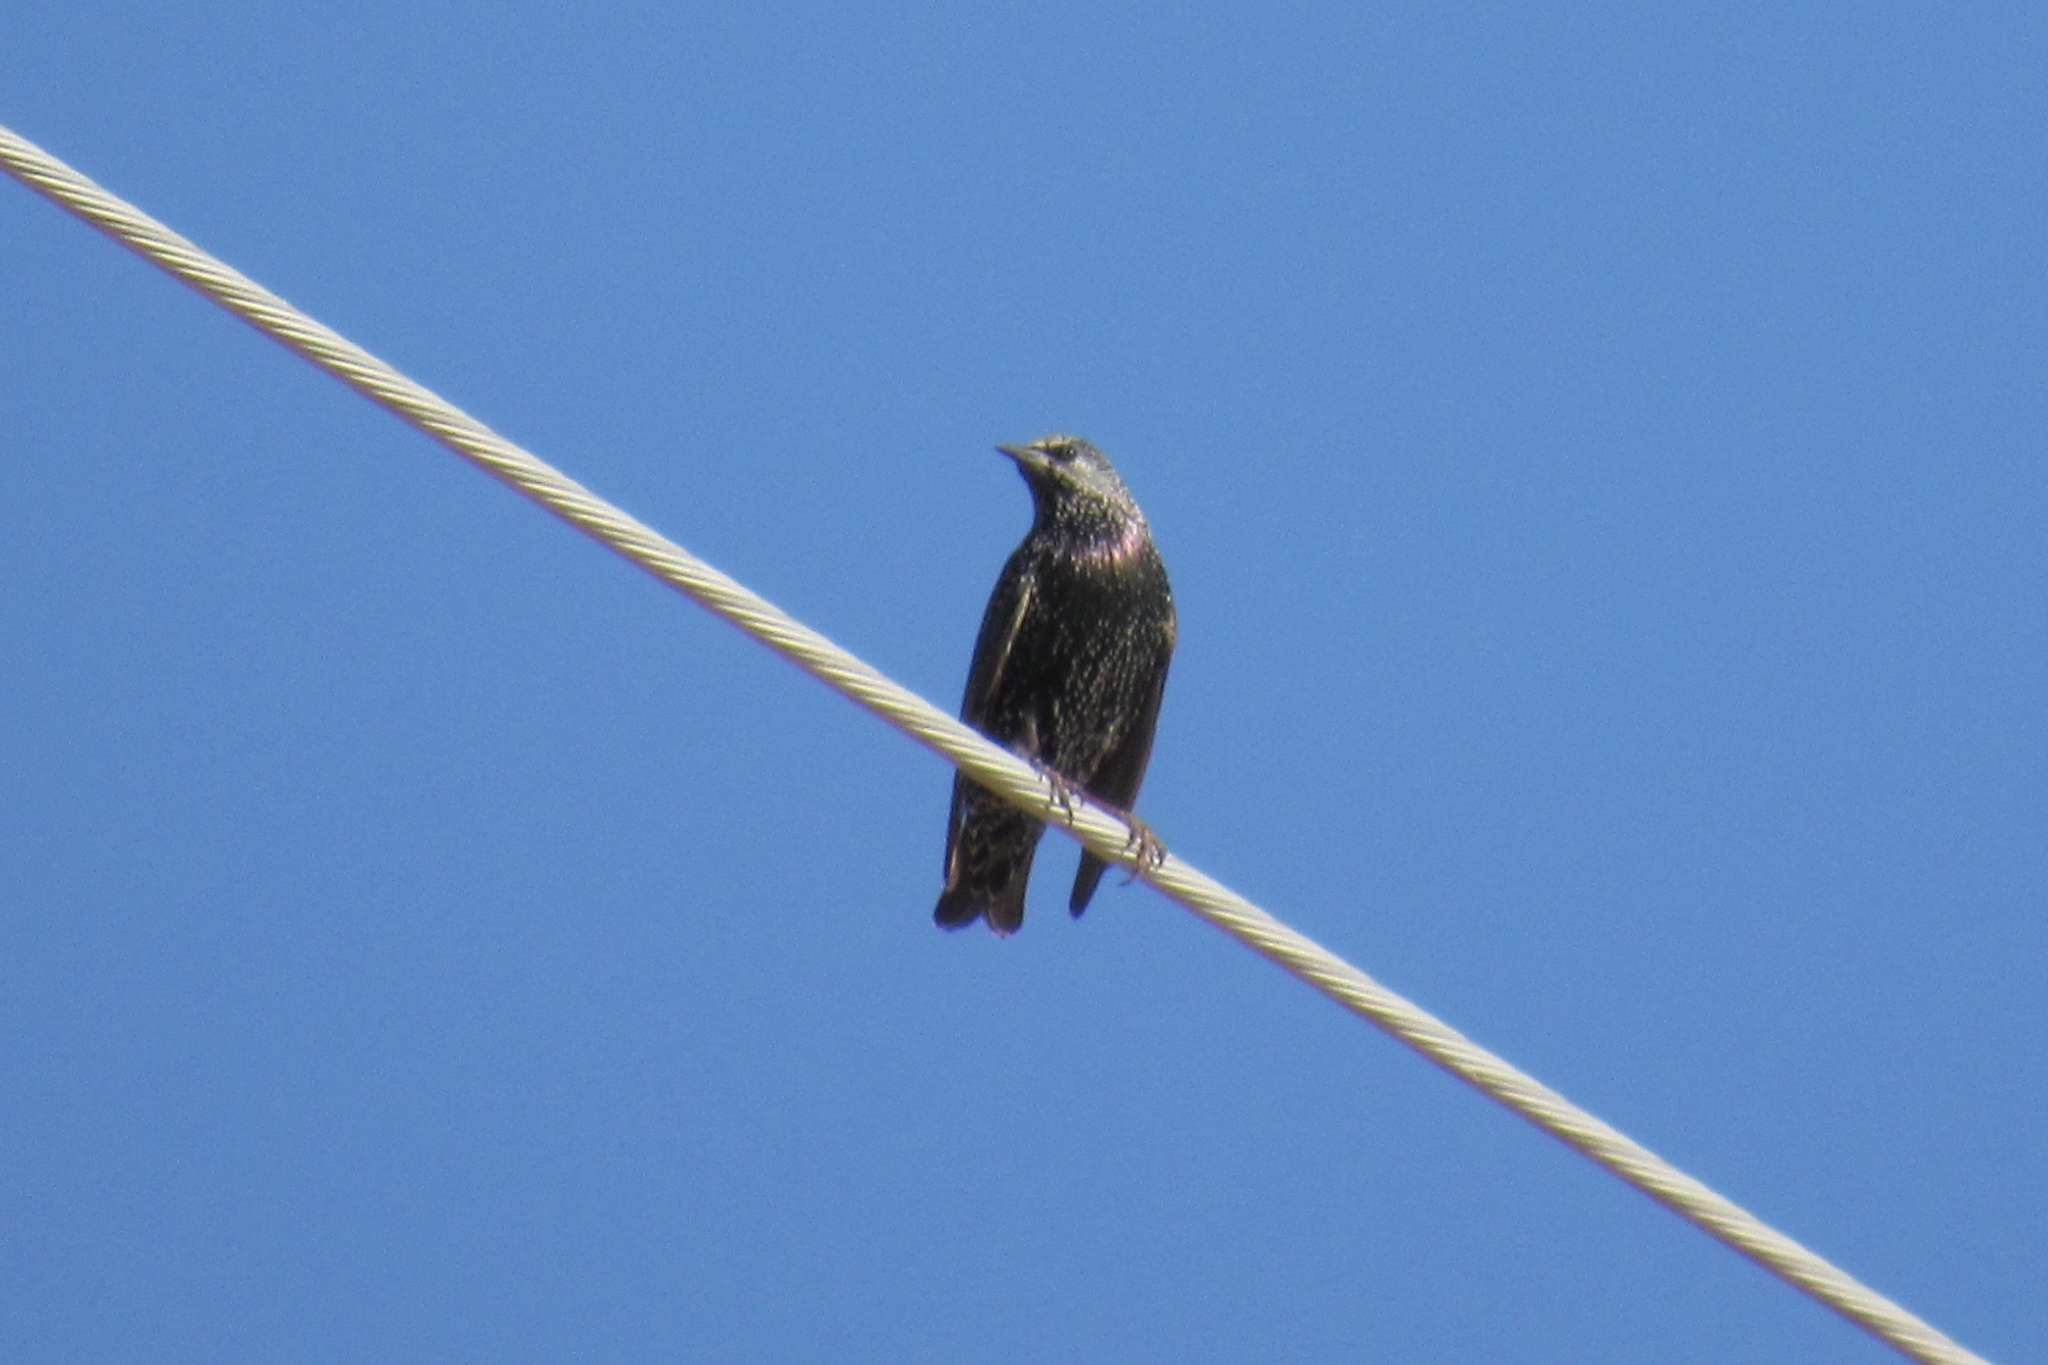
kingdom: Animalia
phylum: Chordata
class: Aves
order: Passeriformes
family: Sturnidae
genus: Sturnus
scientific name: Sturnus vulgaris
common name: Common starling
